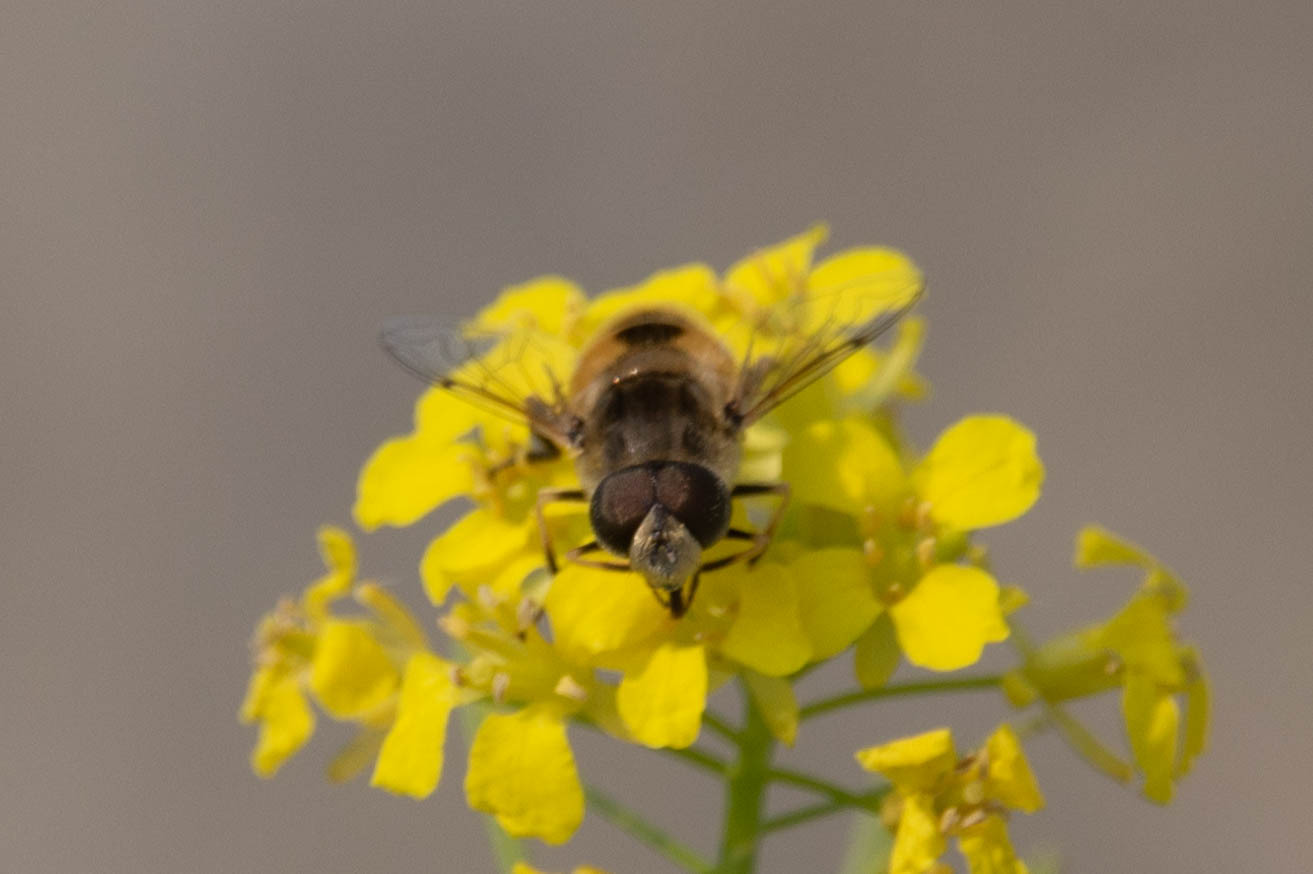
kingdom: Animalia
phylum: Arthropoda
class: Insecta
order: Diptera
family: Syrphidae
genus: Eristalis
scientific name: Eristalis arbustorum
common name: Hover fly
